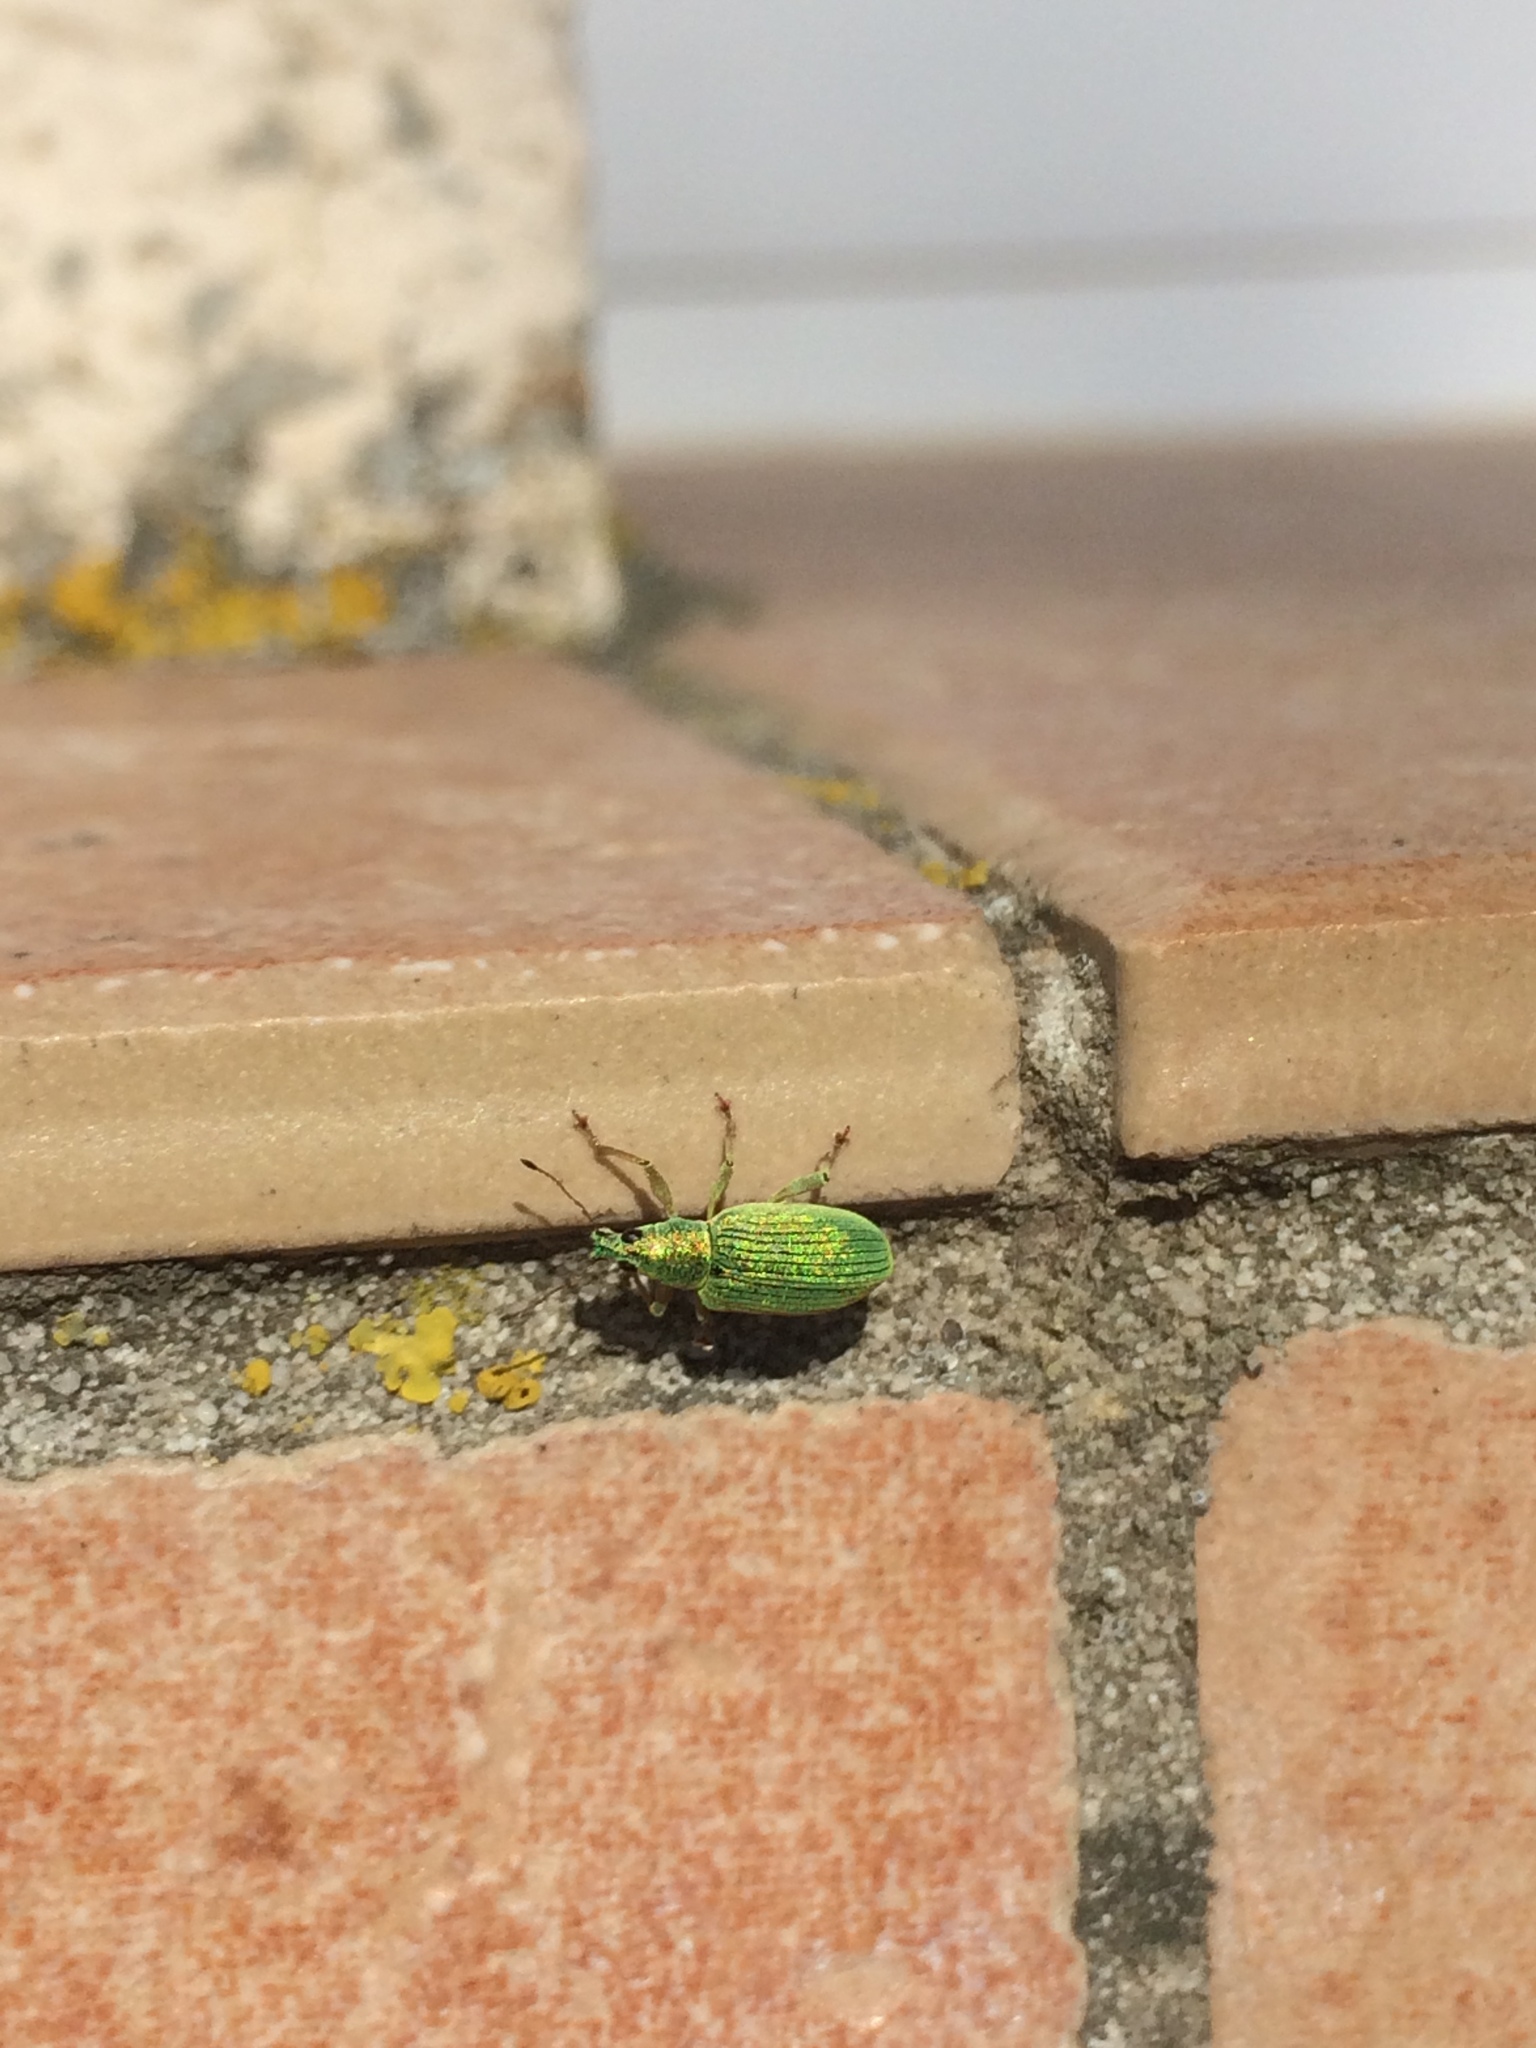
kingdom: Animalia
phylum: Arthropoda
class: Insecta
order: Coleoptera
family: Curculionidae
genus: Polydrusus
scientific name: Polydrusus formosus
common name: Weevil
